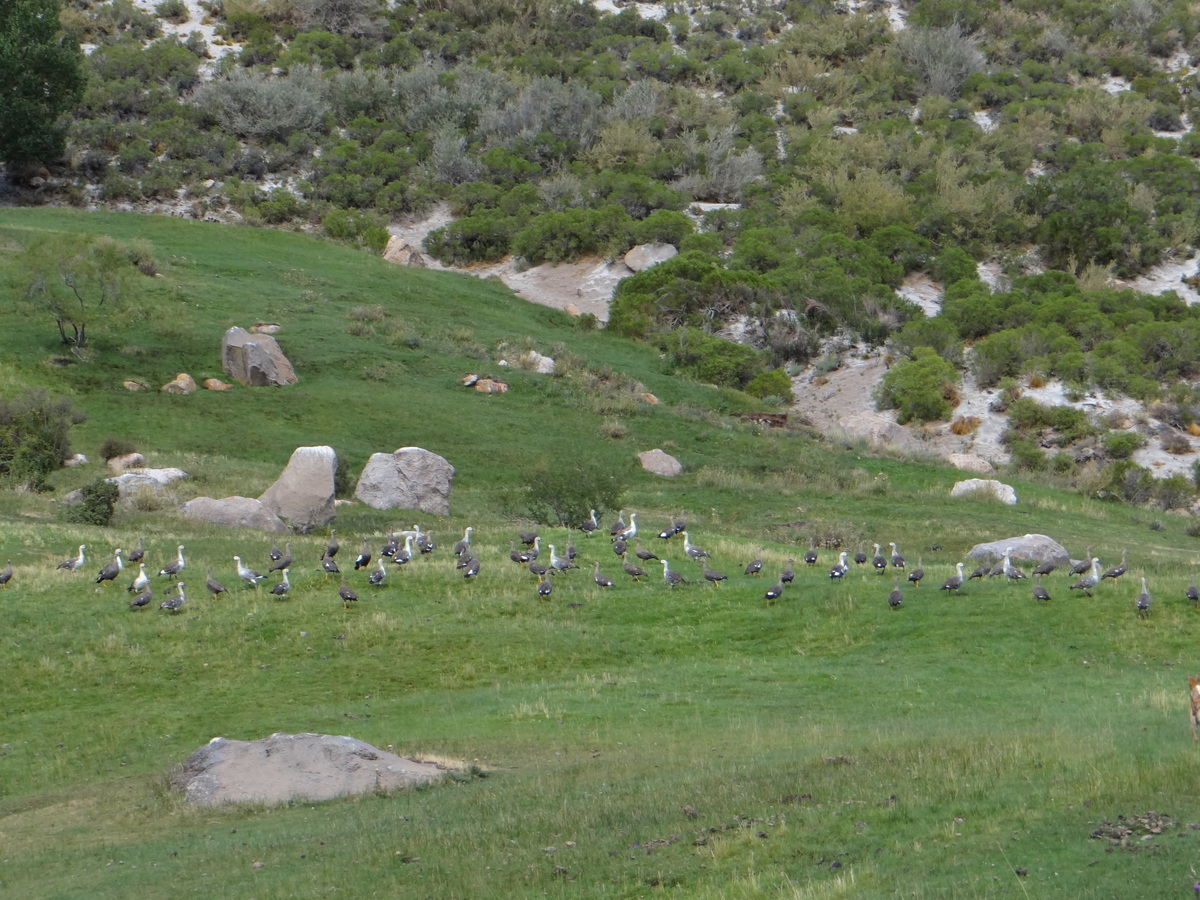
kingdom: Animalia
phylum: Chordata
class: Aves
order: Anseriformes
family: Anatidae
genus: Chloephaga
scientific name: Chloephaga picta
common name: Upland goose
